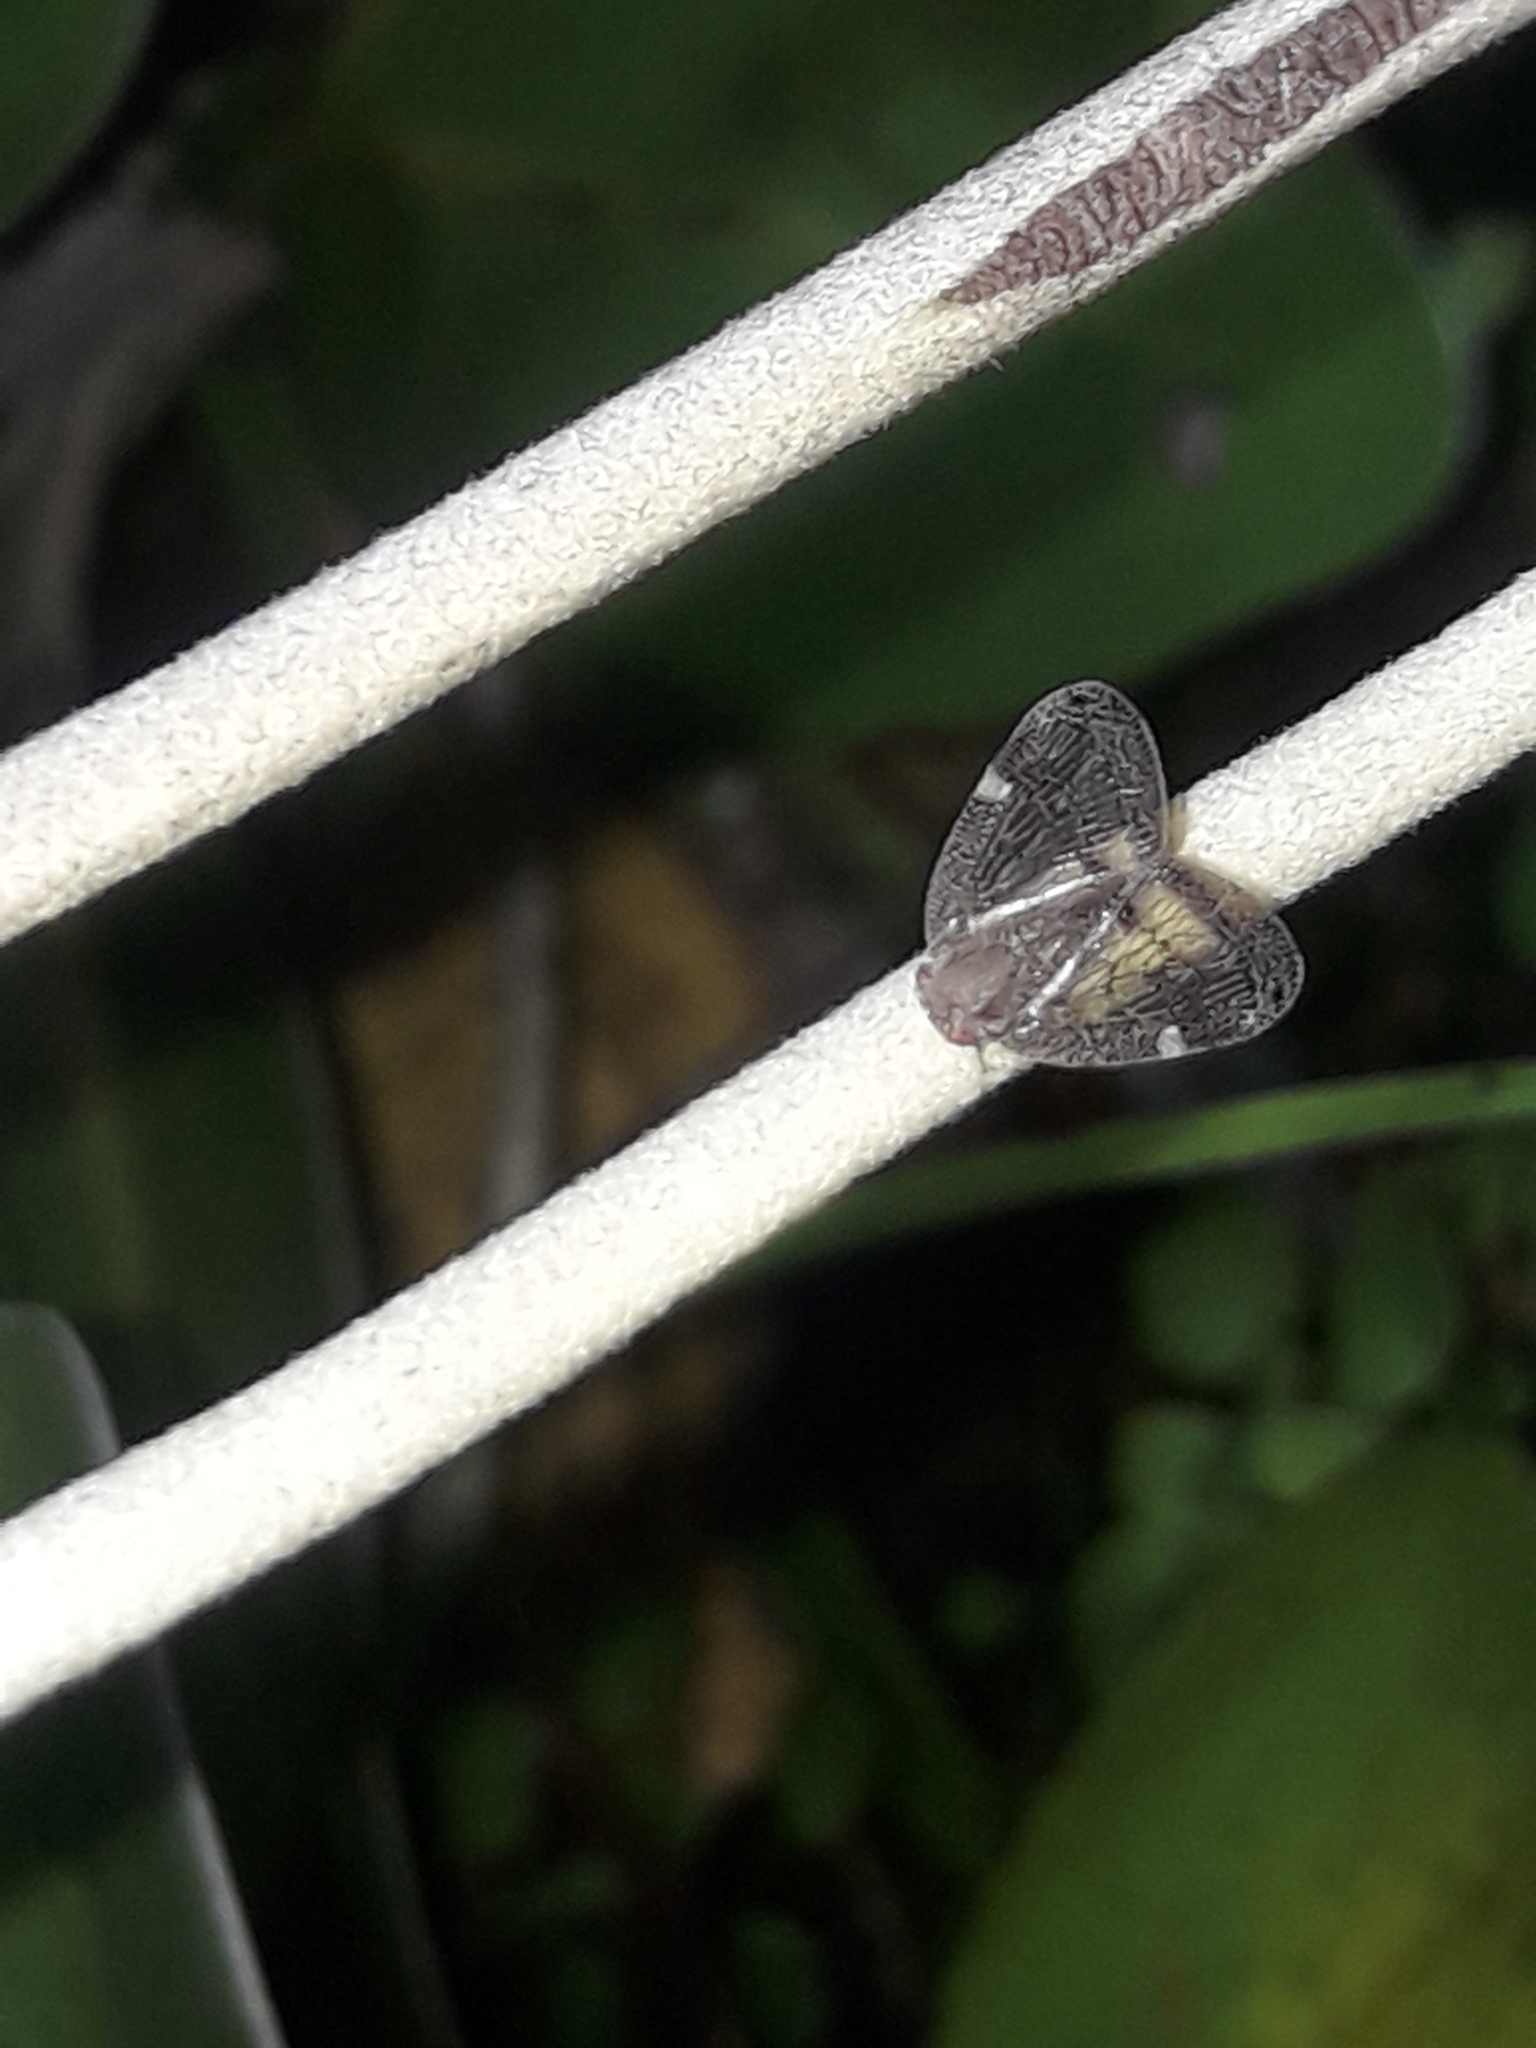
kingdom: Animalia
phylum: Arthropoda
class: Insecta
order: Hemiptera
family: Ricaniidae
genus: Scolypopa
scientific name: Scolypopa australis
